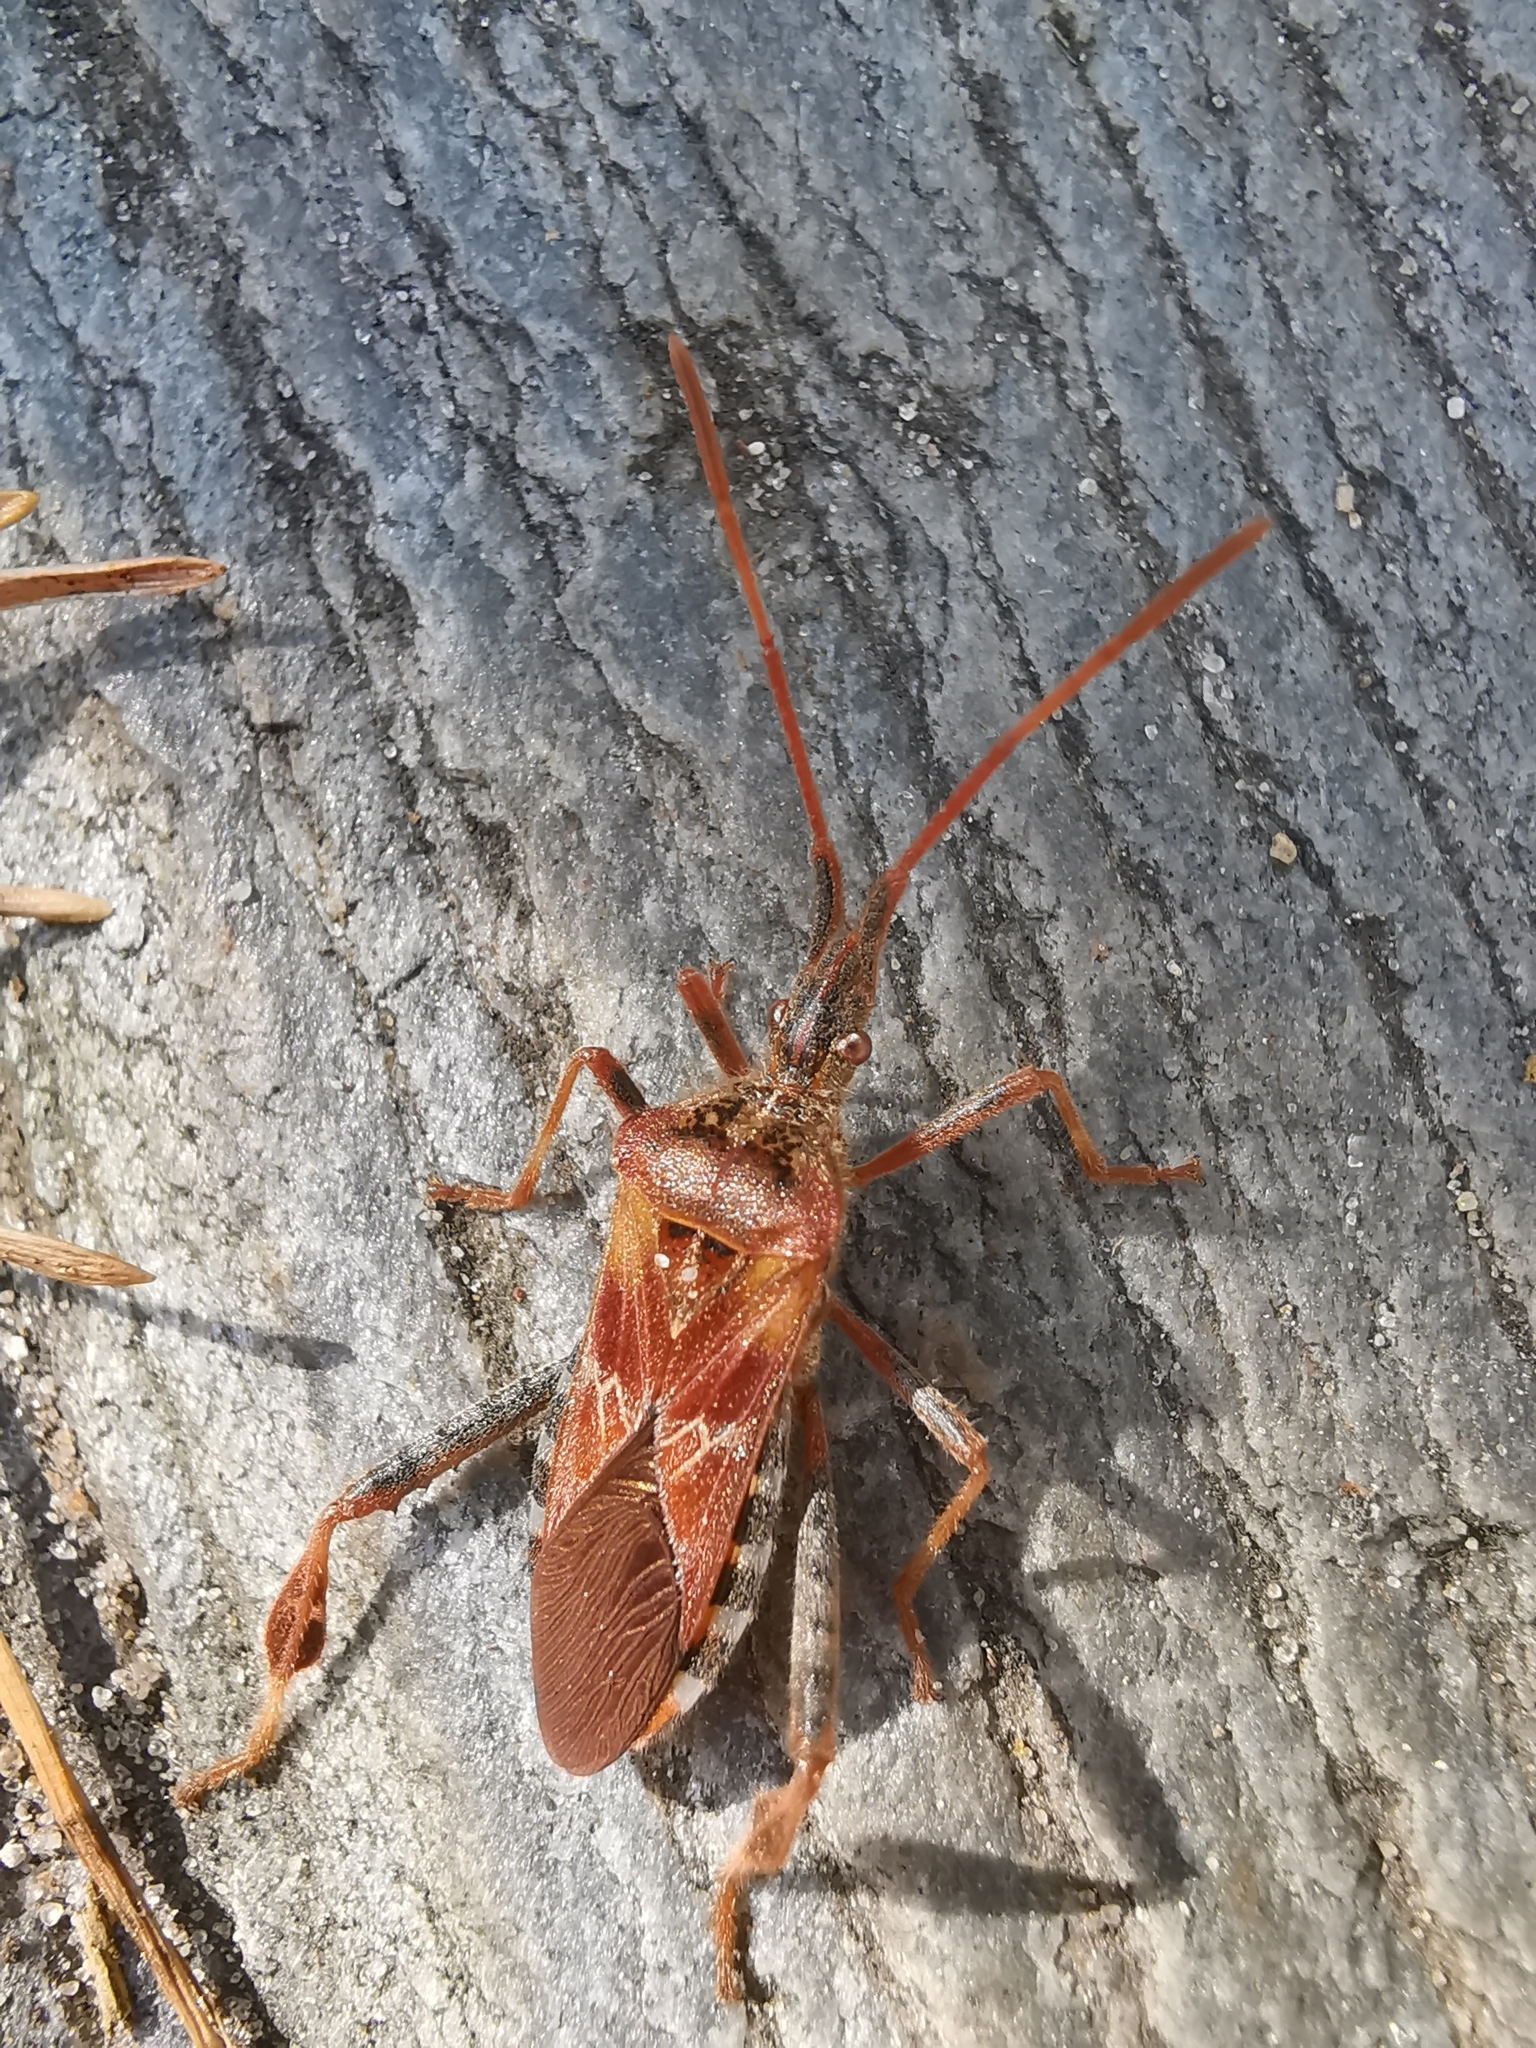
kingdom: Animalia
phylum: Arthropoda
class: Insecta
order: Hemiptera
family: Coreidae
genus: Leptoglossus
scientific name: Leptoglossus occidentalis
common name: Western conifer-seed bug
